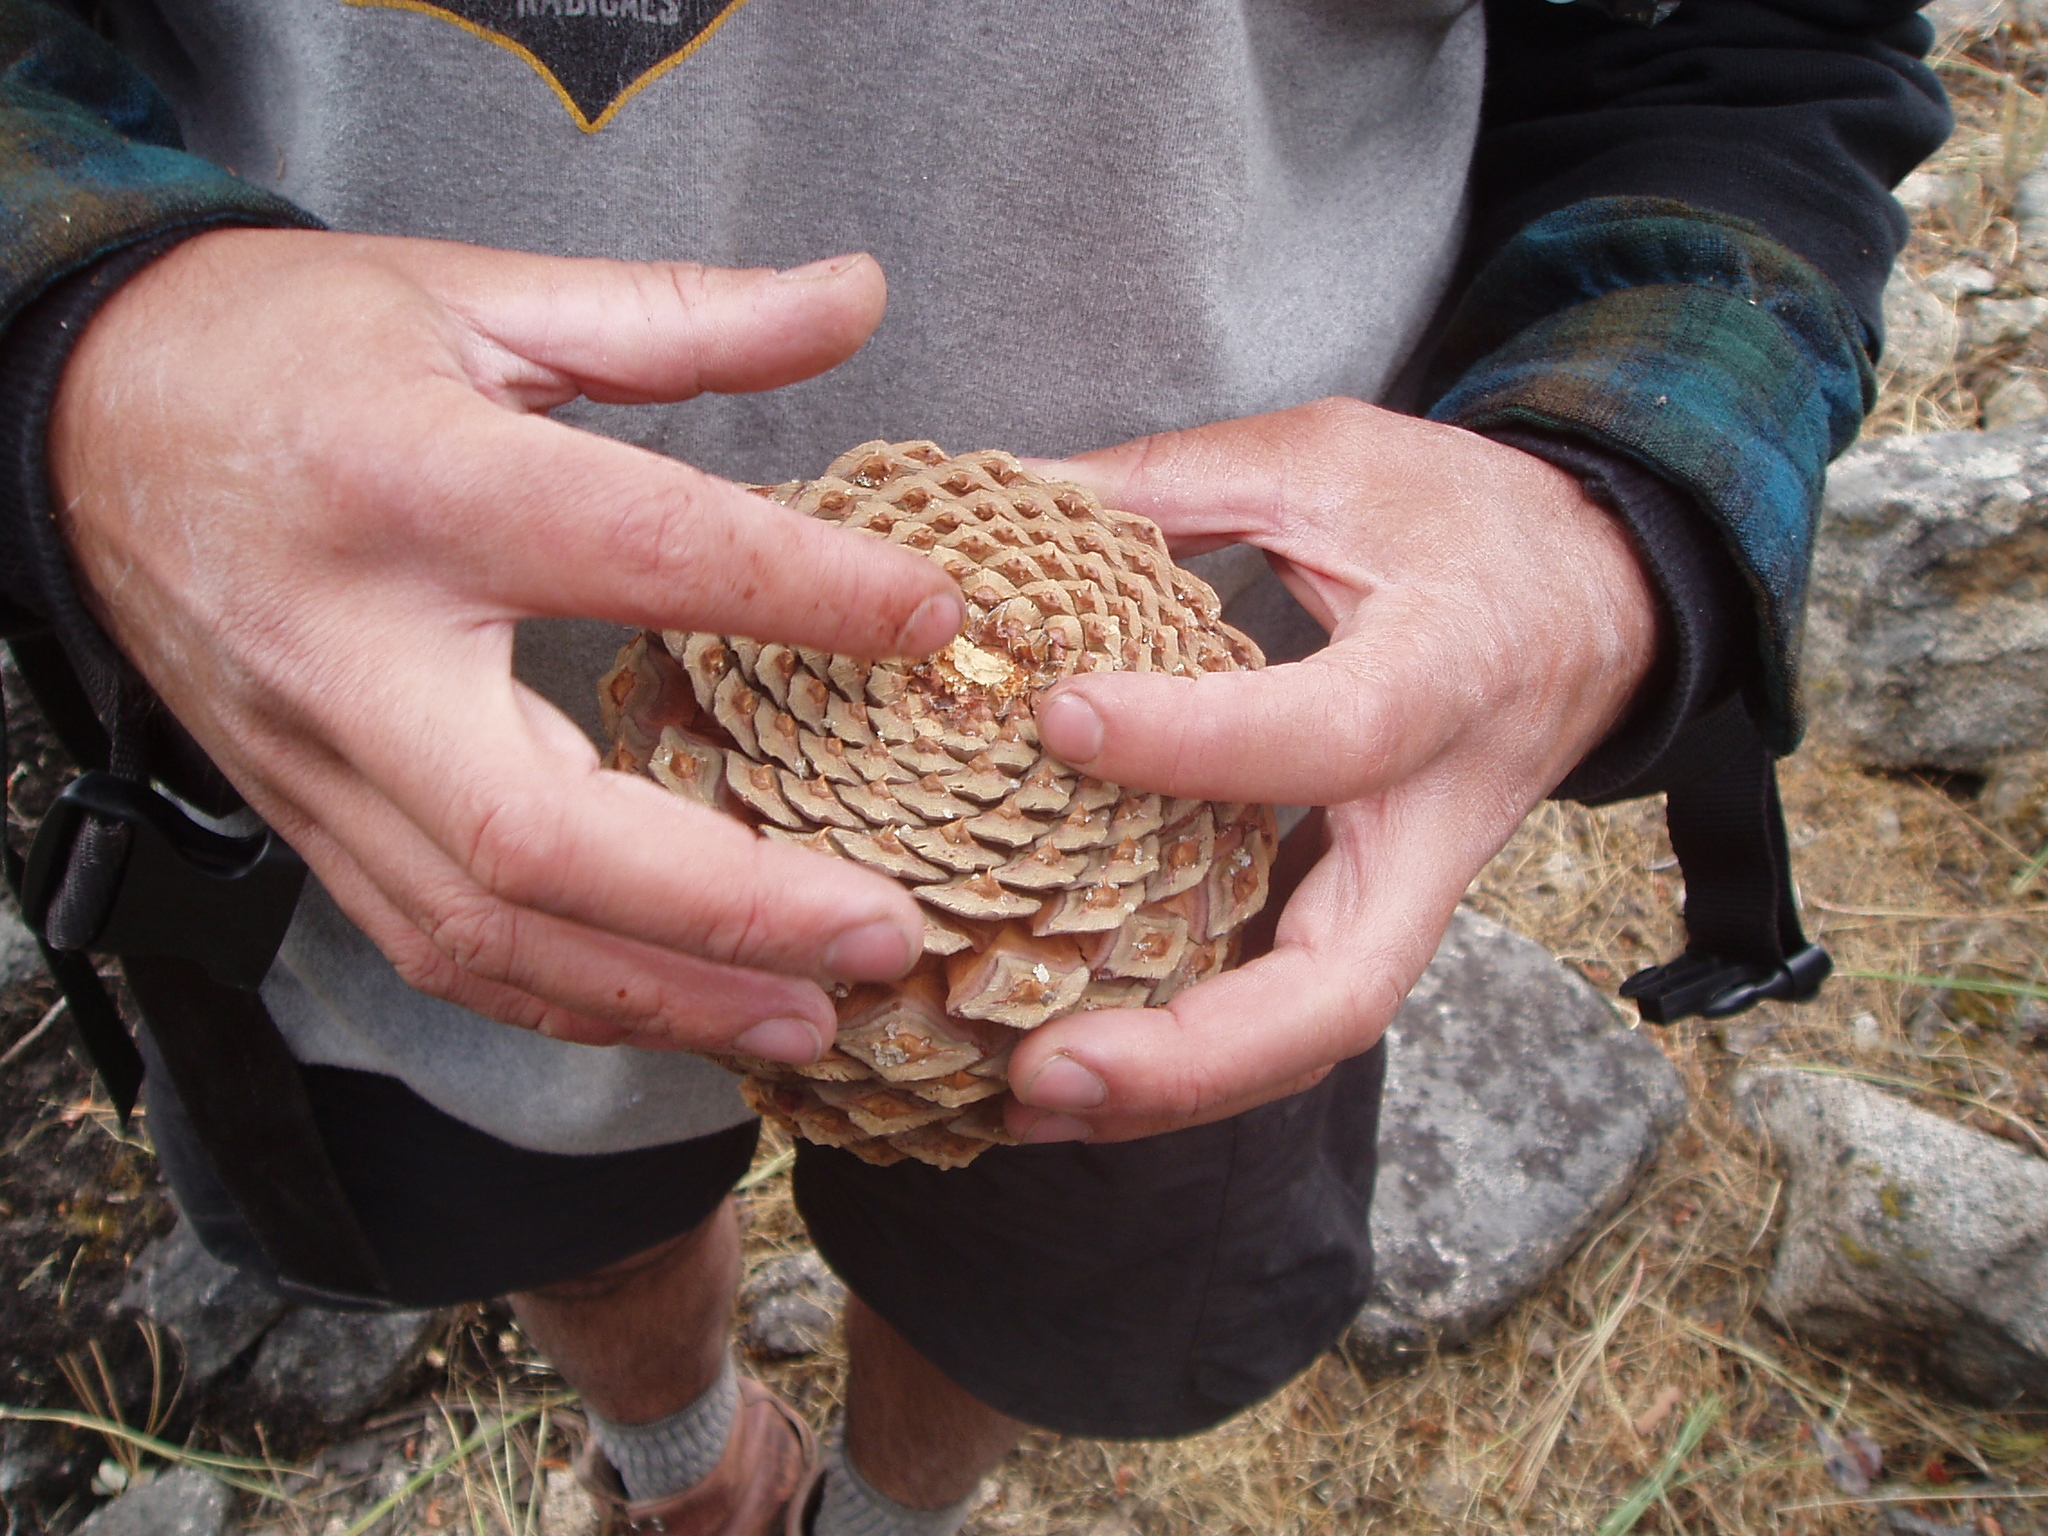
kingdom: Plantae
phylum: Tracheophyta
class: Pinopsida
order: Pinales
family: Pinaceae
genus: Pinus
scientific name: Pinus jeffreyi
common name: Jeffrey pine
